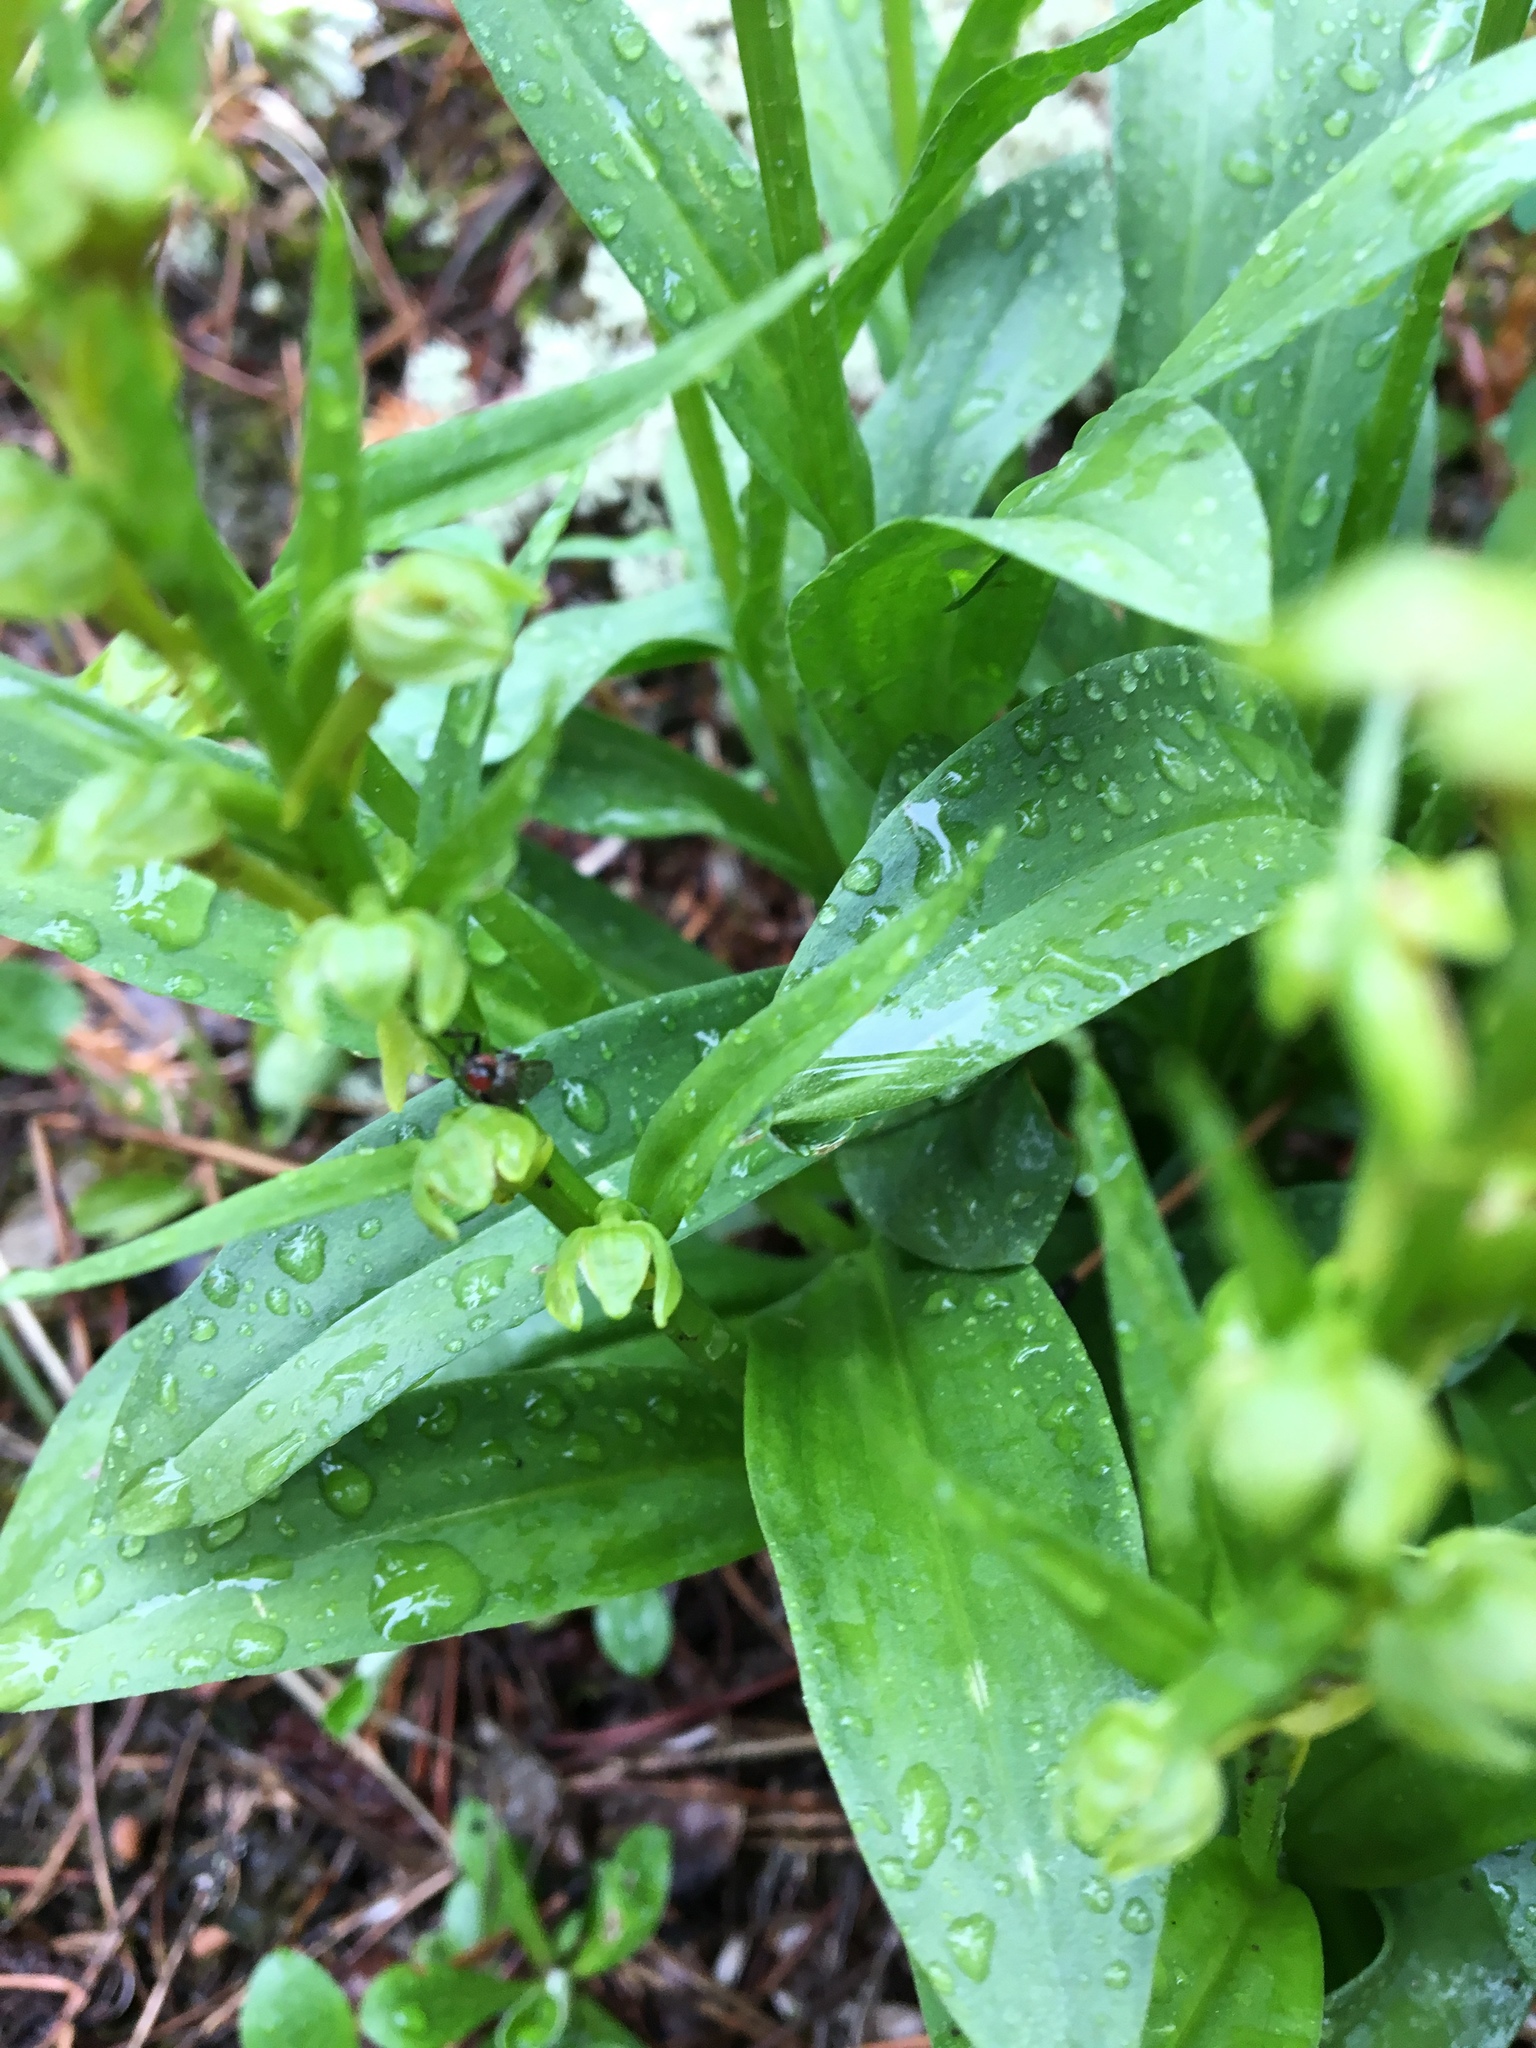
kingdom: Plantae
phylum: Tracheophyta
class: Liliopsida
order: Asparagales
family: Orchidaceae
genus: Dactylorhiza
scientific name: Dactylorhiza viridis
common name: Longbract frog orchid
